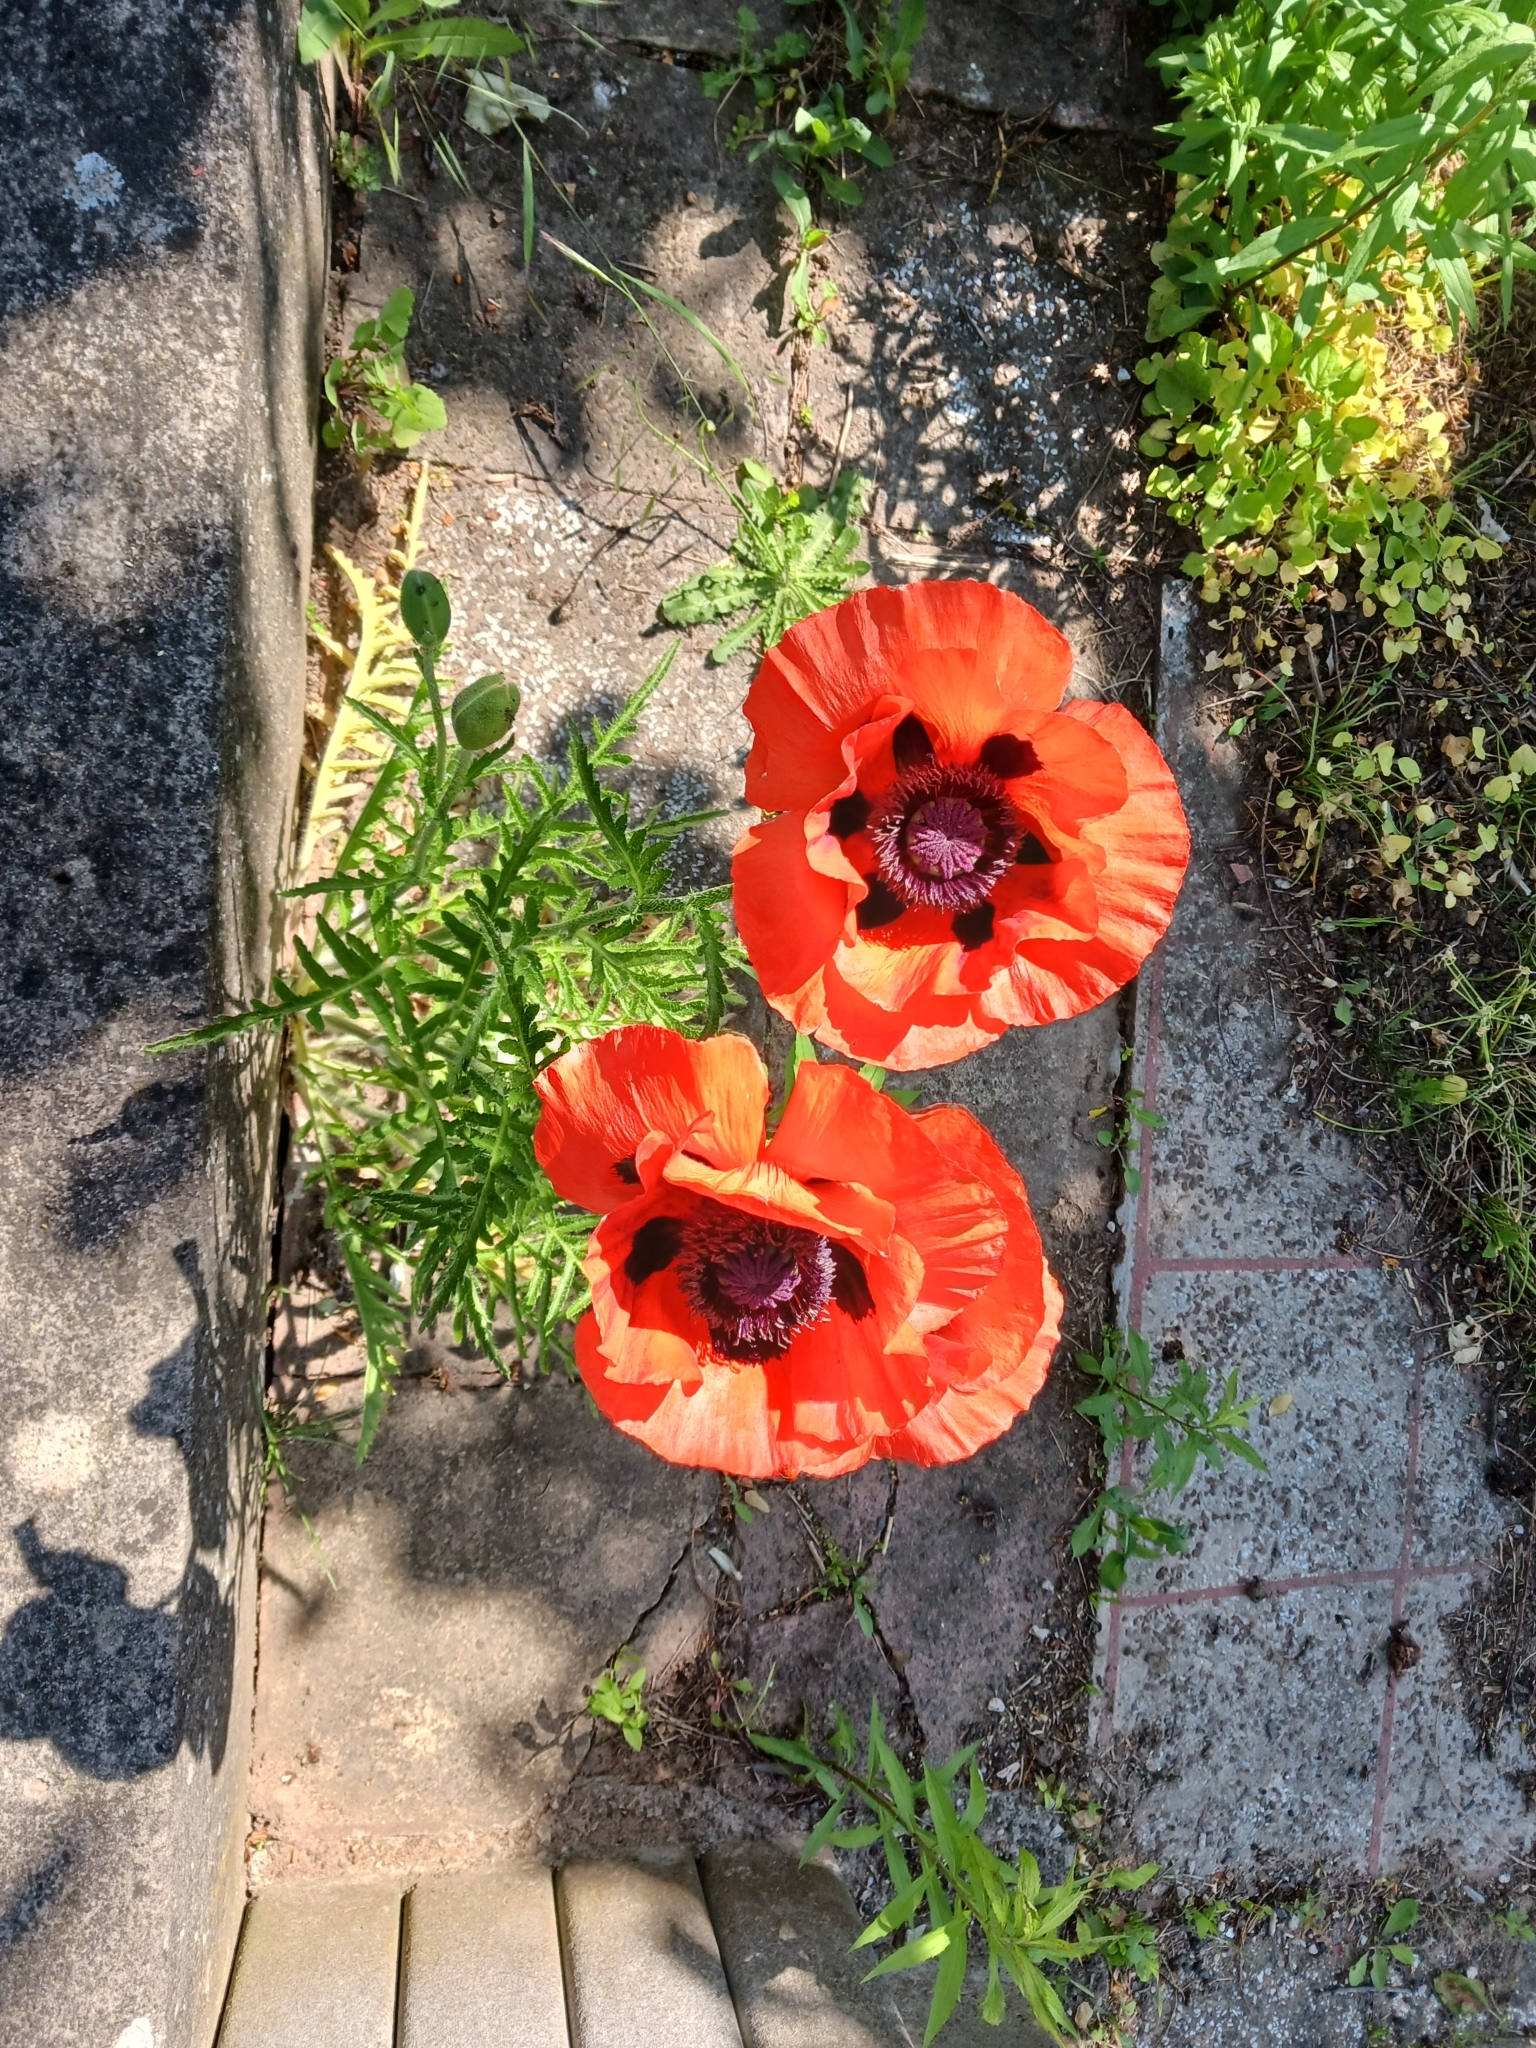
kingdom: Plantae
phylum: Tracheophyta
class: Magnoliopsida
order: Ranunculales
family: Papaveraceae
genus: Papaver
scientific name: Papaver orientale
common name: Oriental poppy
